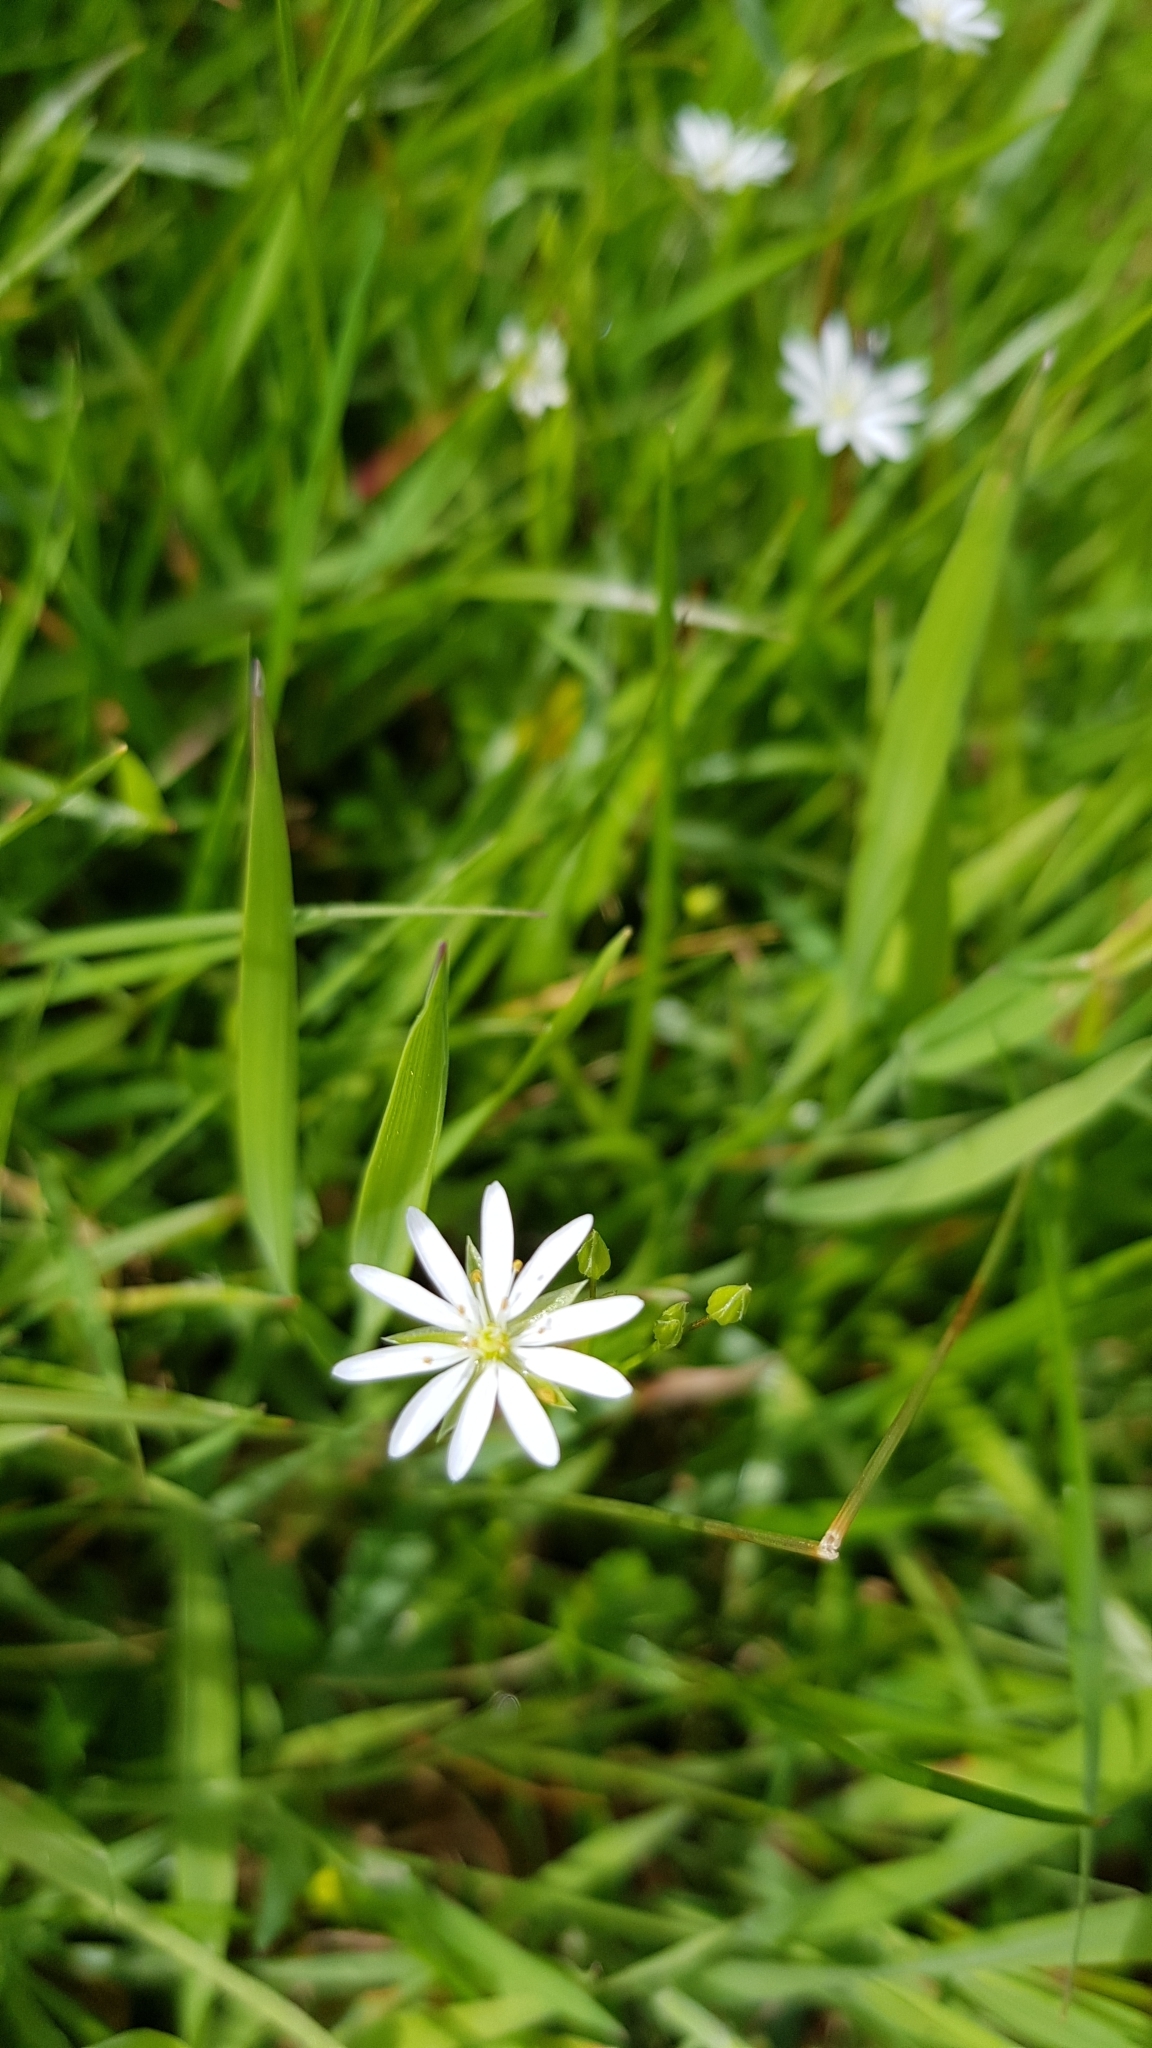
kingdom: Plantae
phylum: Tracheophyta
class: Magnoliopsida
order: Caryophyllales
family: Caryophyllaceae
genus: Stellaria
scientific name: Stellaria graminea
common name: Grass-like starwort
